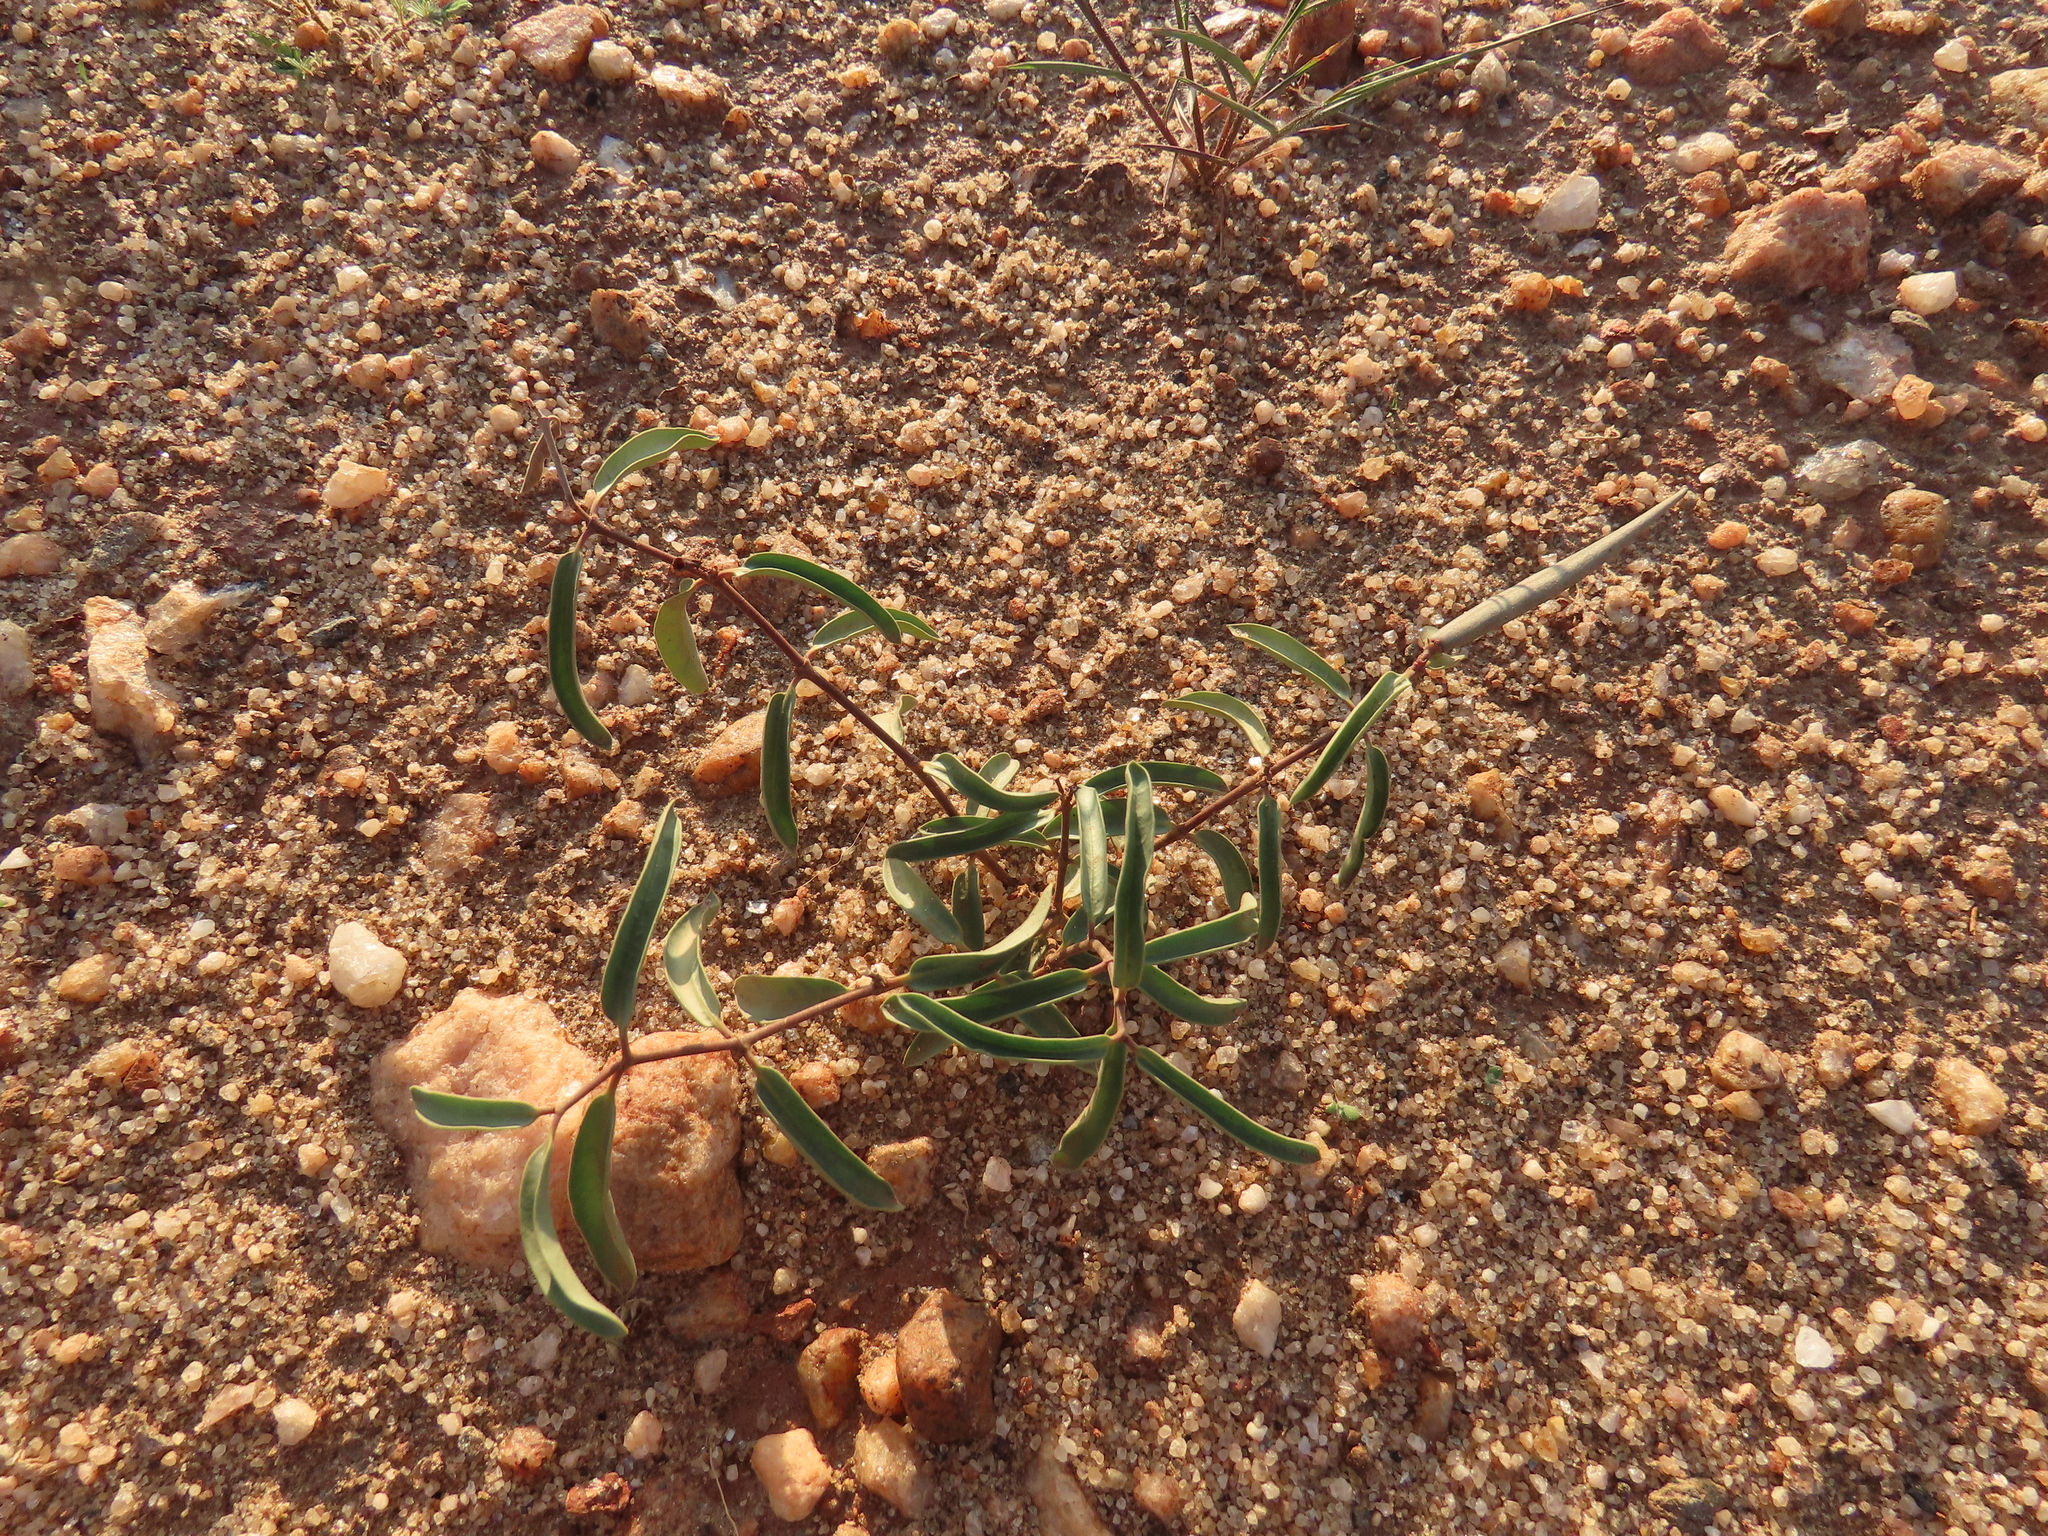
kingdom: Plantae
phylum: Tracheophyta
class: Magnoliopsida
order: Gentianales
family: Apocynaceae
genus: Raphionacme
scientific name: Raphionacme lanceolata
